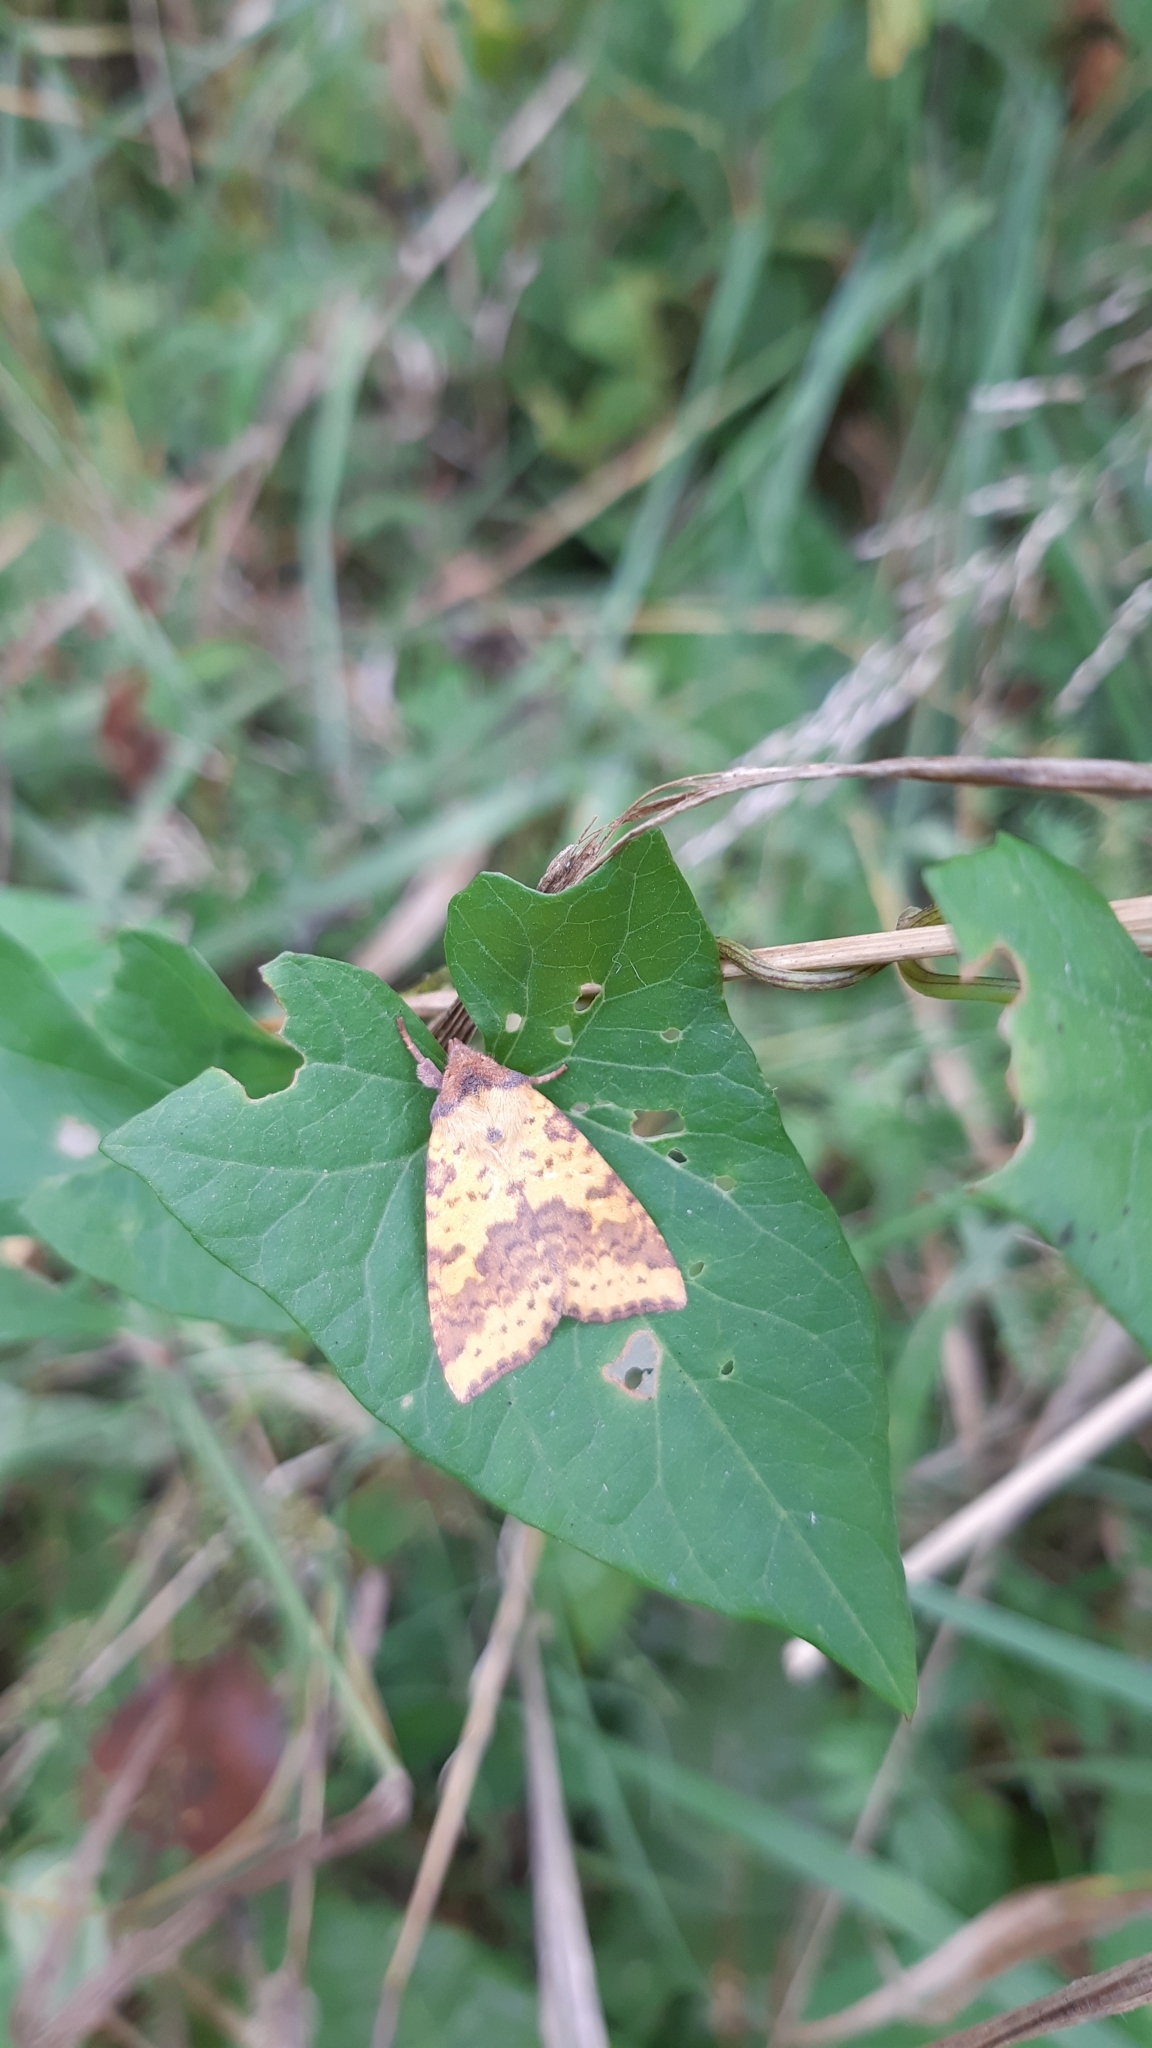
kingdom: Animalia
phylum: Arthropoda
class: Insecta
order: Lepidoptera
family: Noctuidae
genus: Xanthia
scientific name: Xanthia togata
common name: Pink-barred sallow
